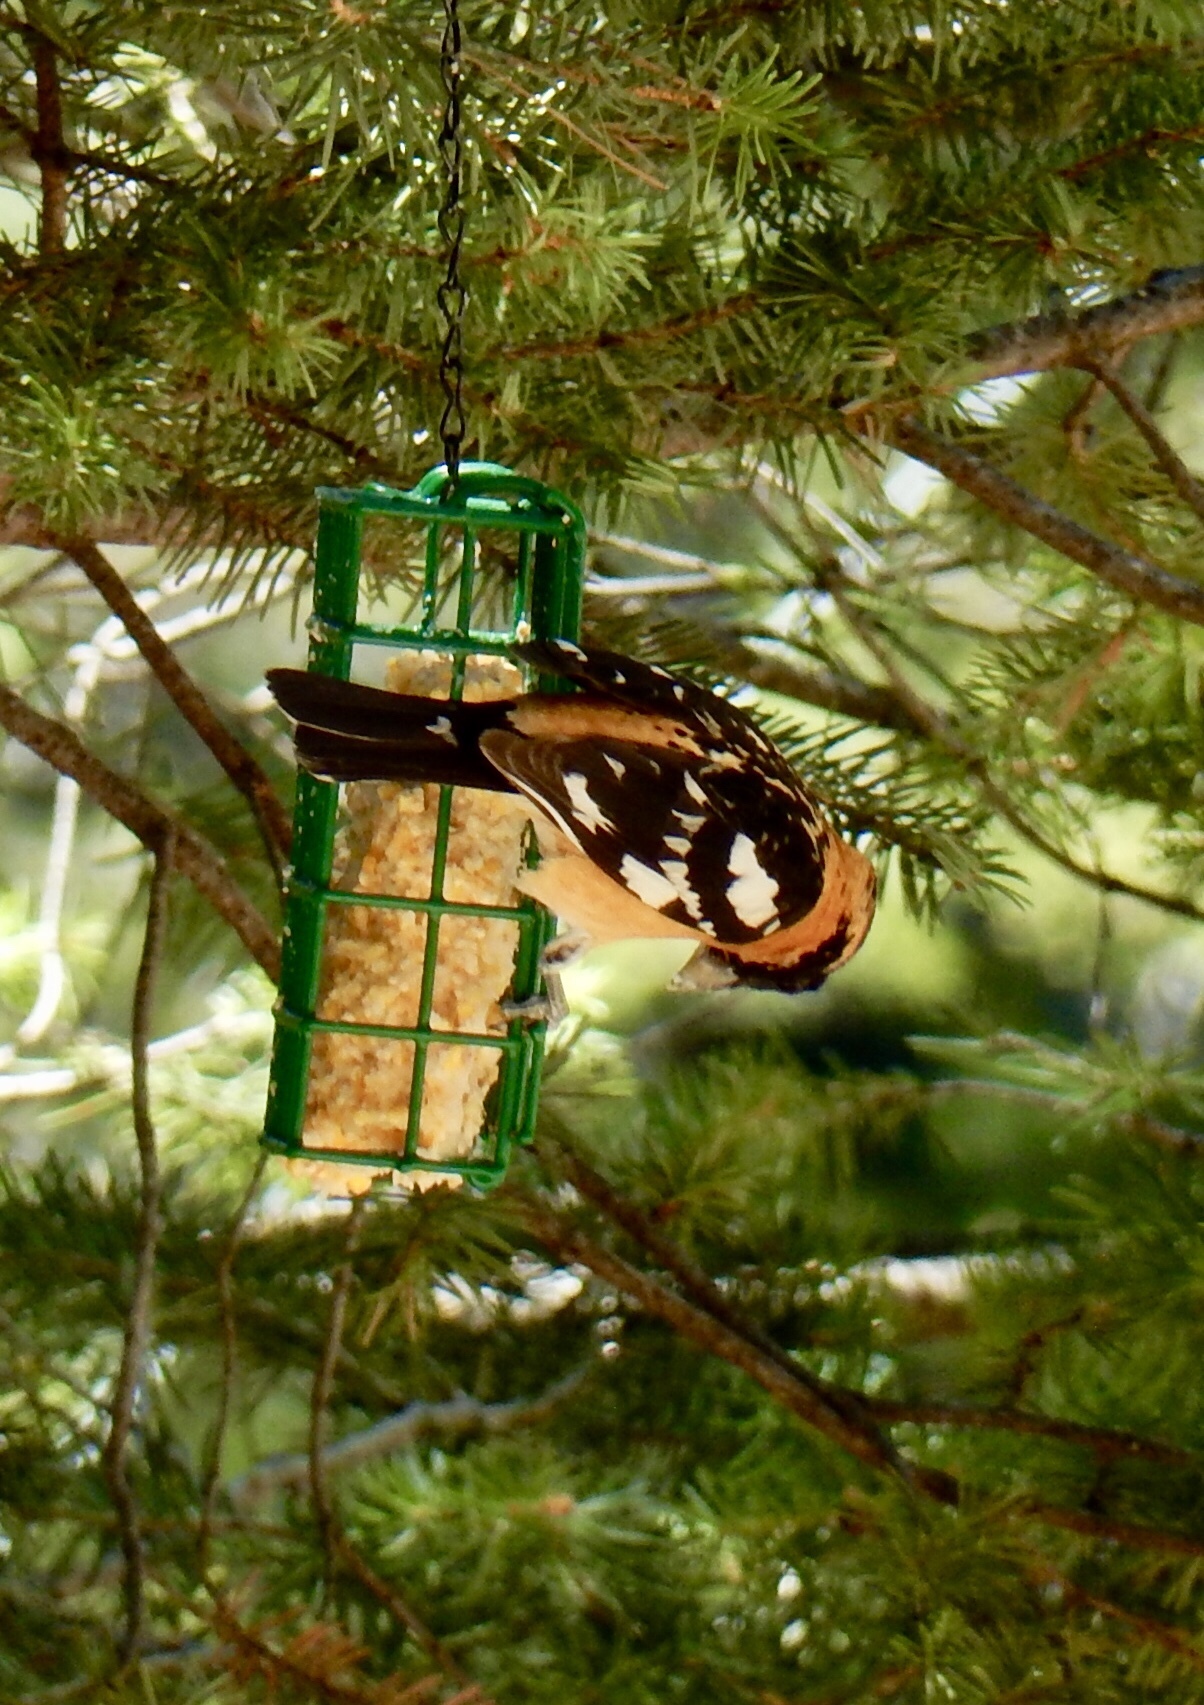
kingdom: Animalia
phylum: Chordata
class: Aves
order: Passeriformes
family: Cardinalidae
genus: Pheucticus
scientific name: Pheucticus melanocephalus
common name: Black-headed grosbeak
